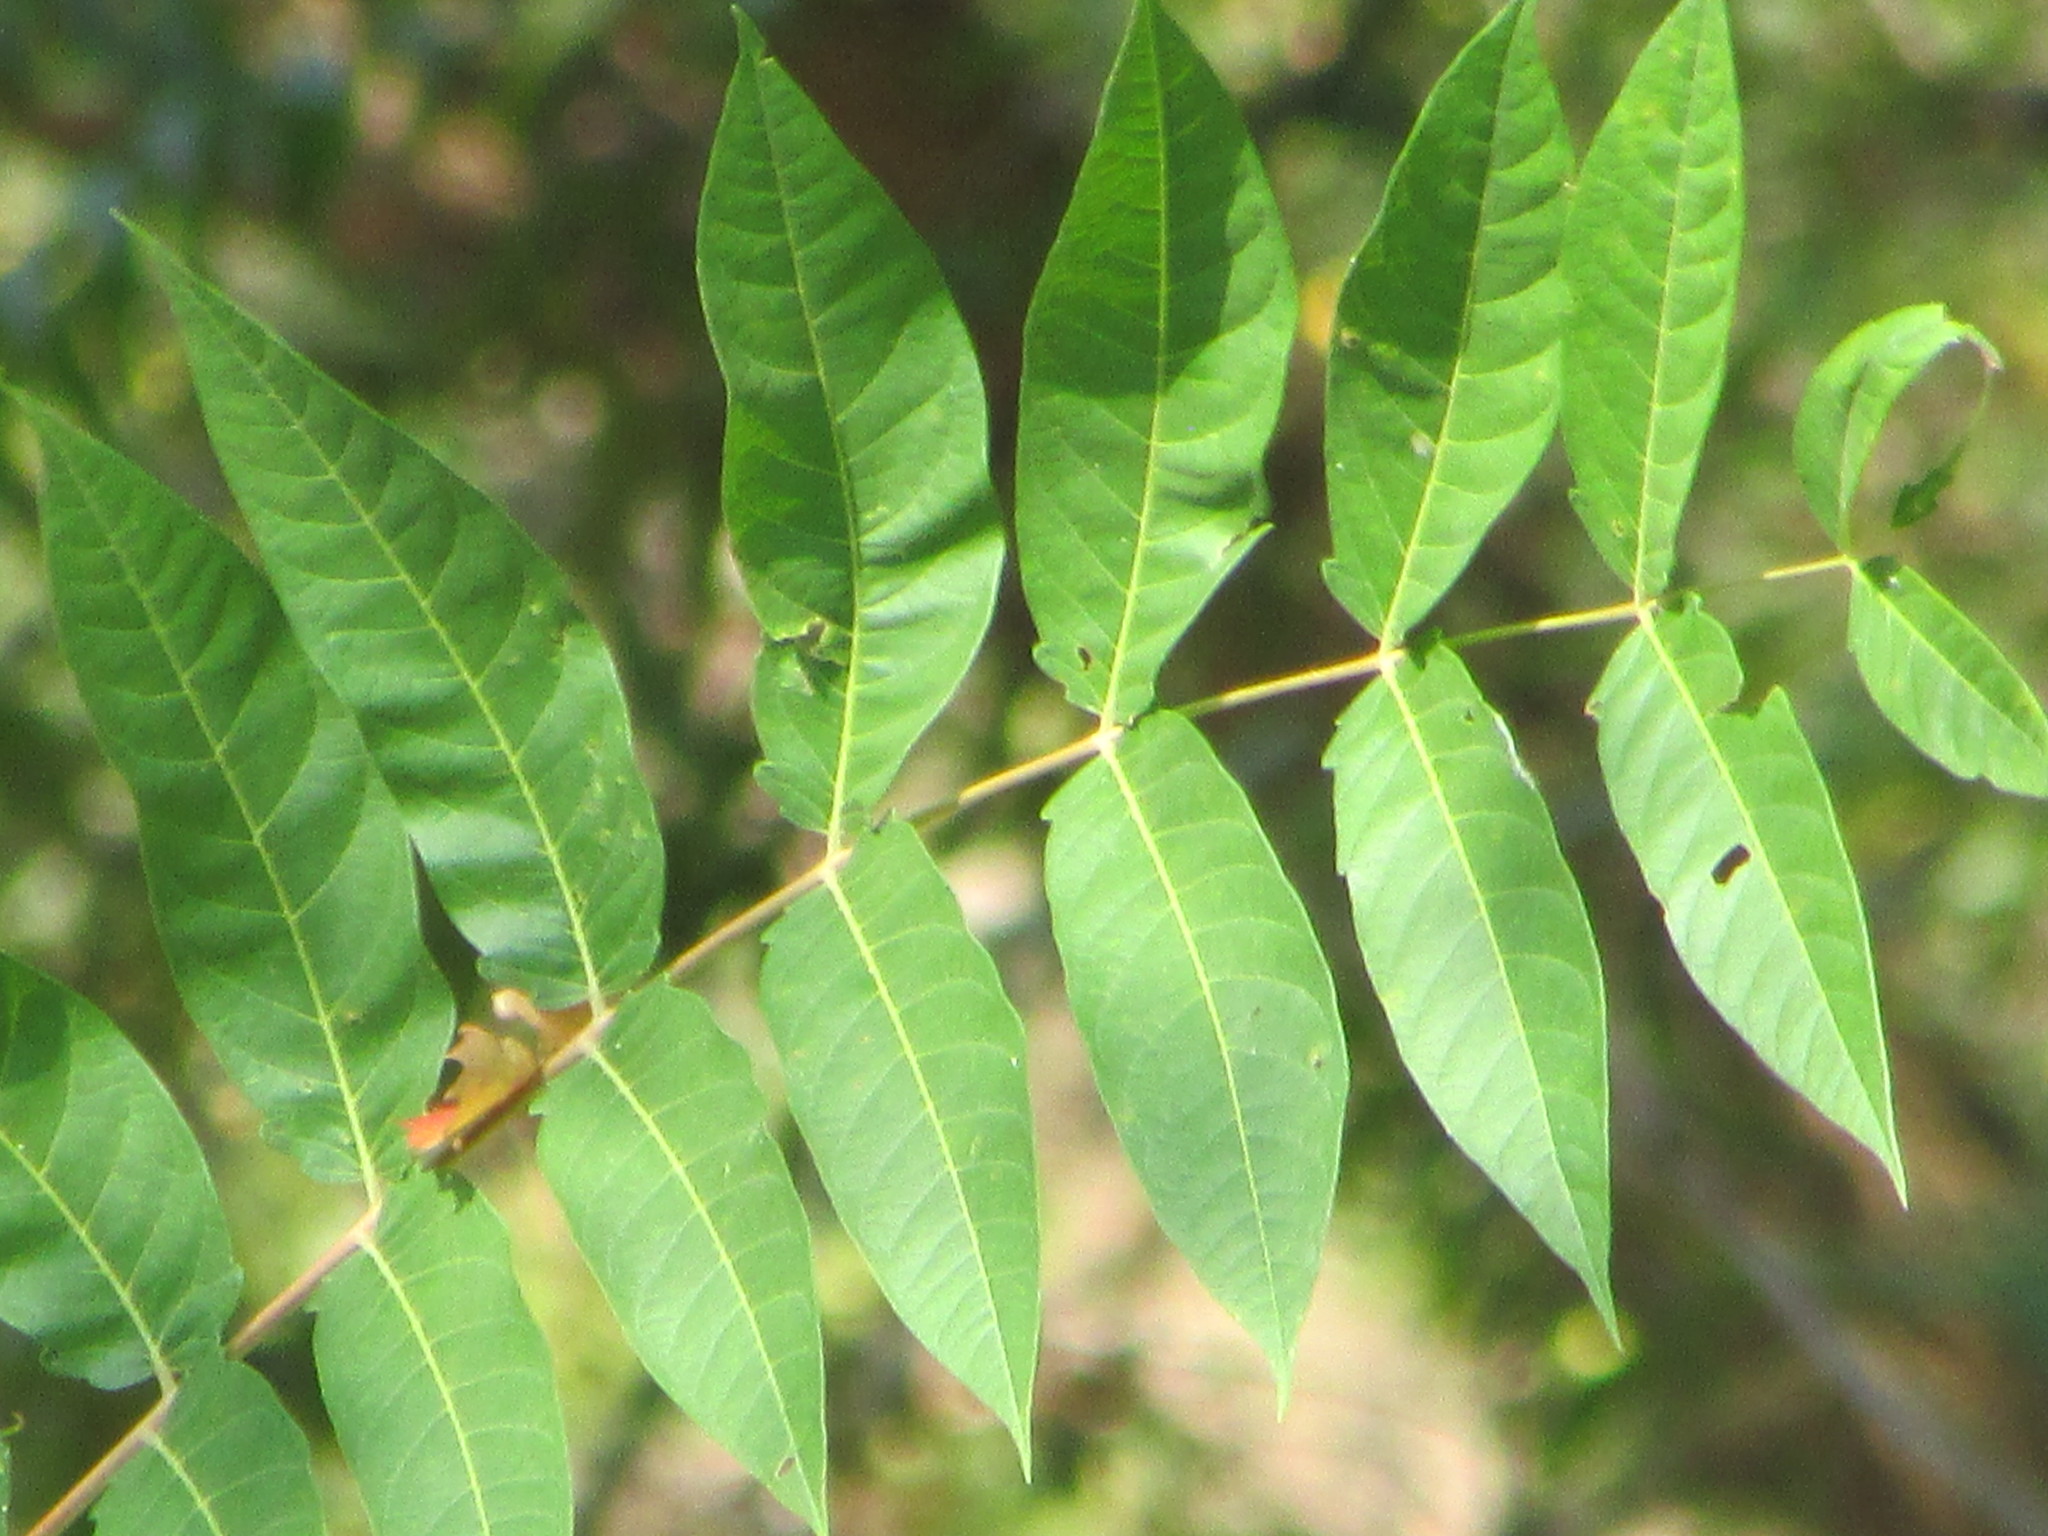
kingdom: Plantae
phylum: Tracheophyta
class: Magnoliopsida
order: Sapindales
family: Simaroubaceae
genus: Ailanthus
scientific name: Ailanthus altissima
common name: Tree-of-heaven
